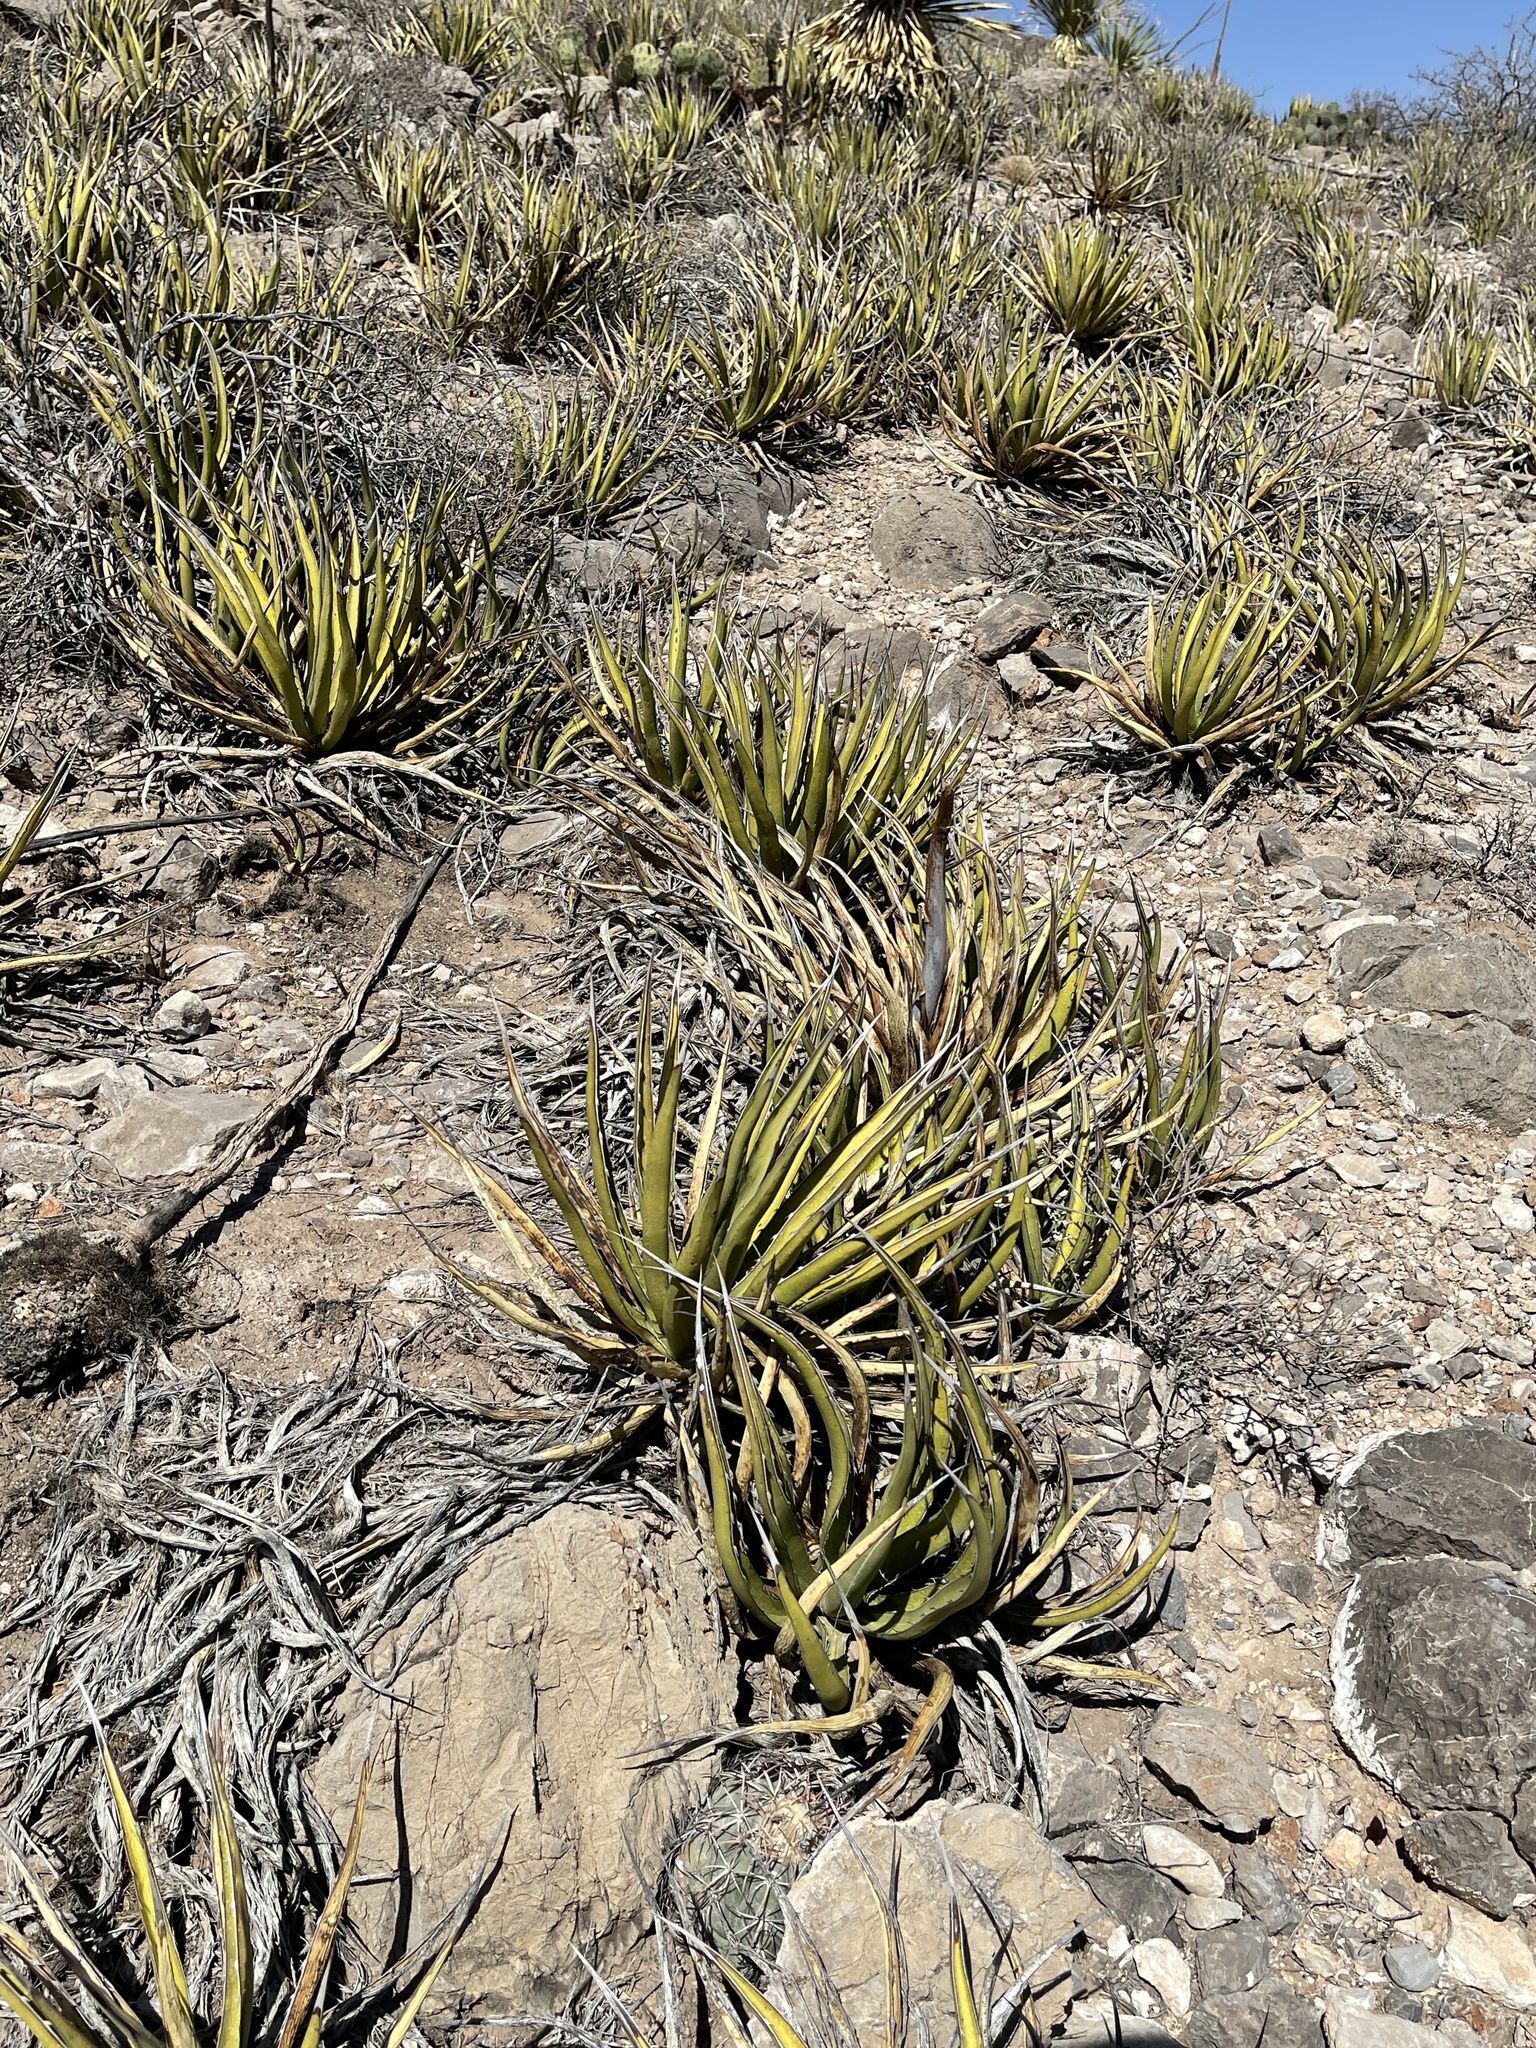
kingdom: Plantae
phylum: Tracheophyta
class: Liliopsida
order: Asparagales
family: Asparagaceae
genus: Agave
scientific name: Agave lechuguilla
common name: Lecheguilla agave
